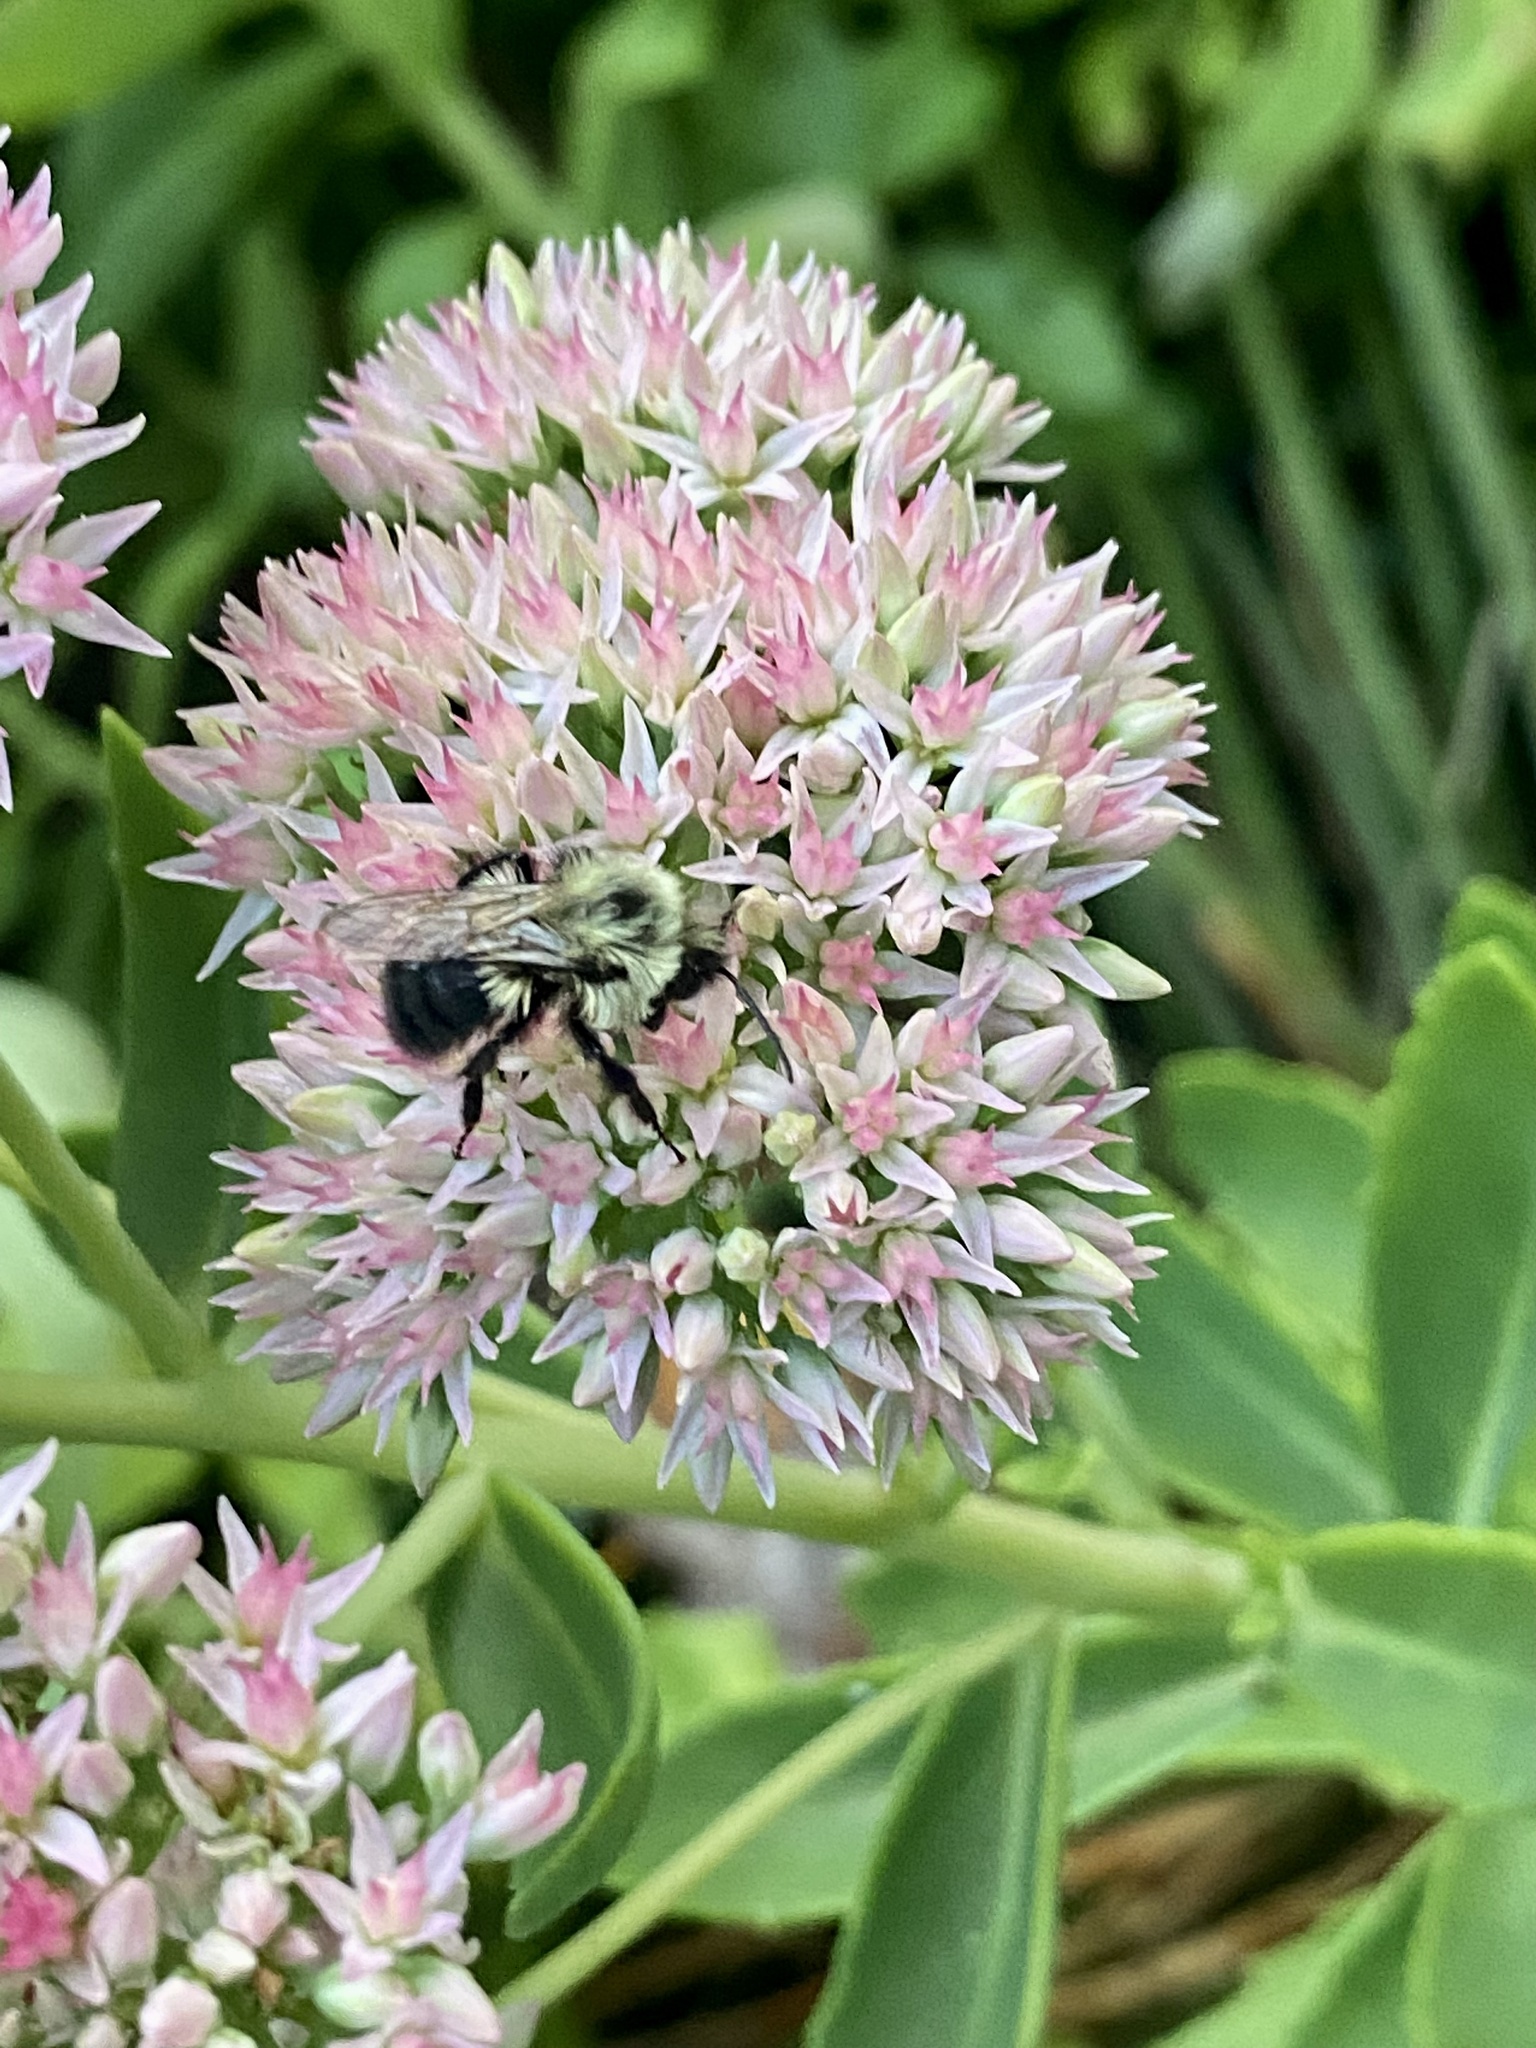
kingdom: Animalia
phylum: Arthropoda
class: Insecta
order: Hymenoptera
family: Apidae
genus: Bombus
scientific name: Bombus impatiens
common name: Common eastern bumble bee
